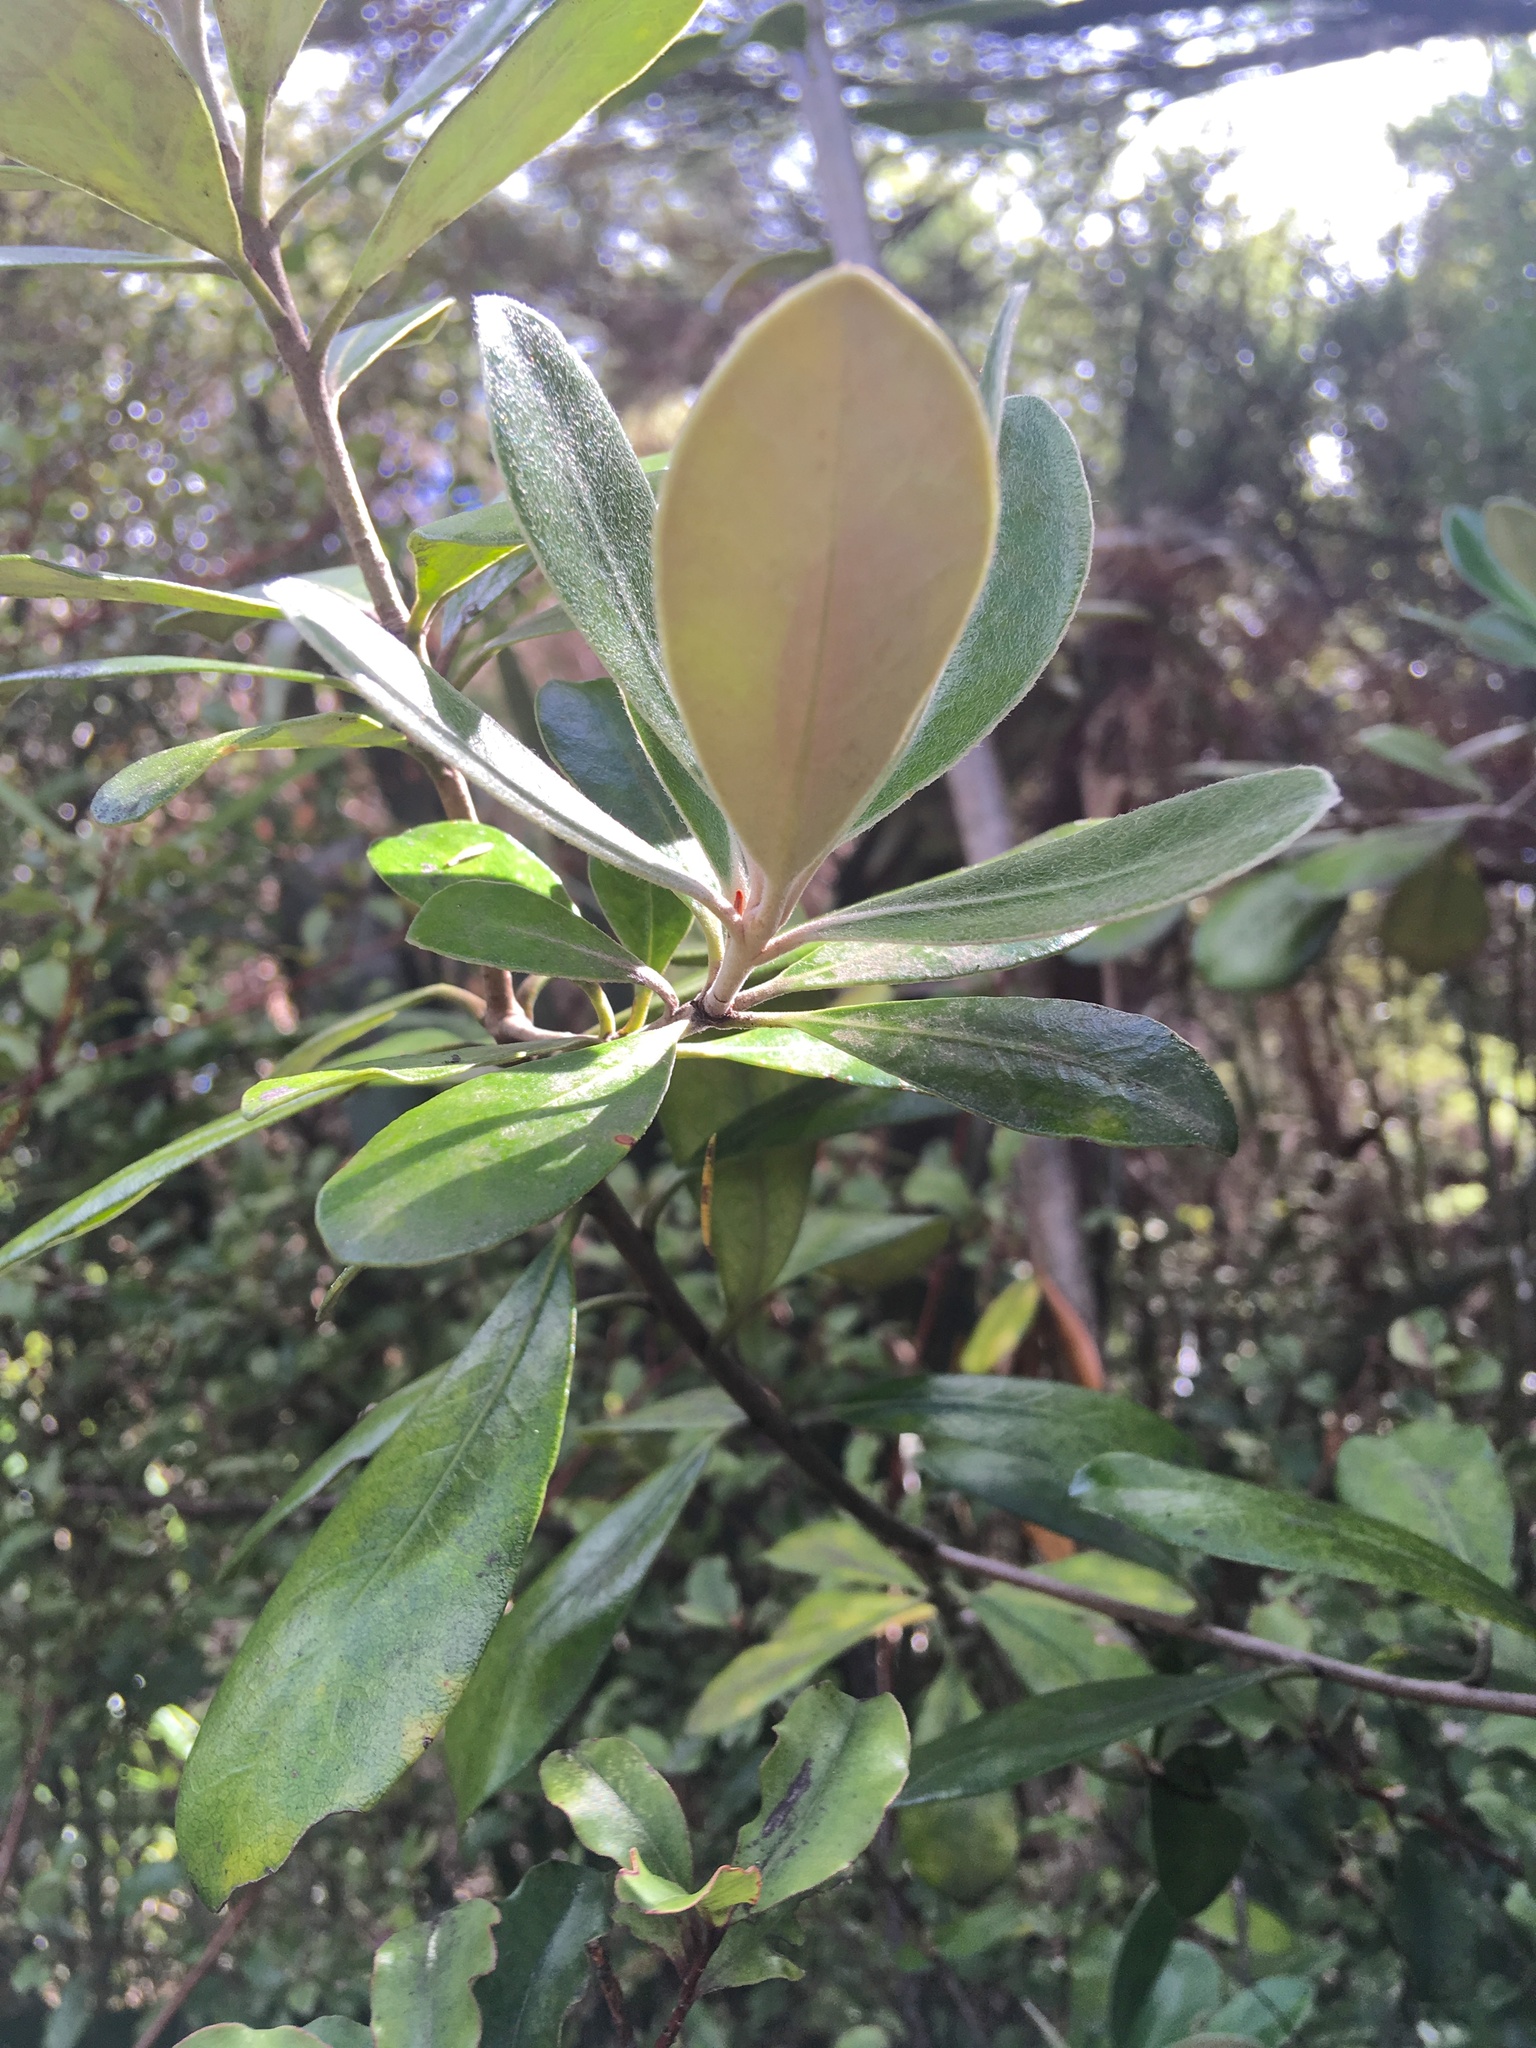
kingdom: Plantae
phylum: Tracheophyta
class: Magnoliopsida
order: Apiales
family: Pittosporaceae
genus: Pittosporum
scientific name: Pittosporum crassifolium
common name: Karo
